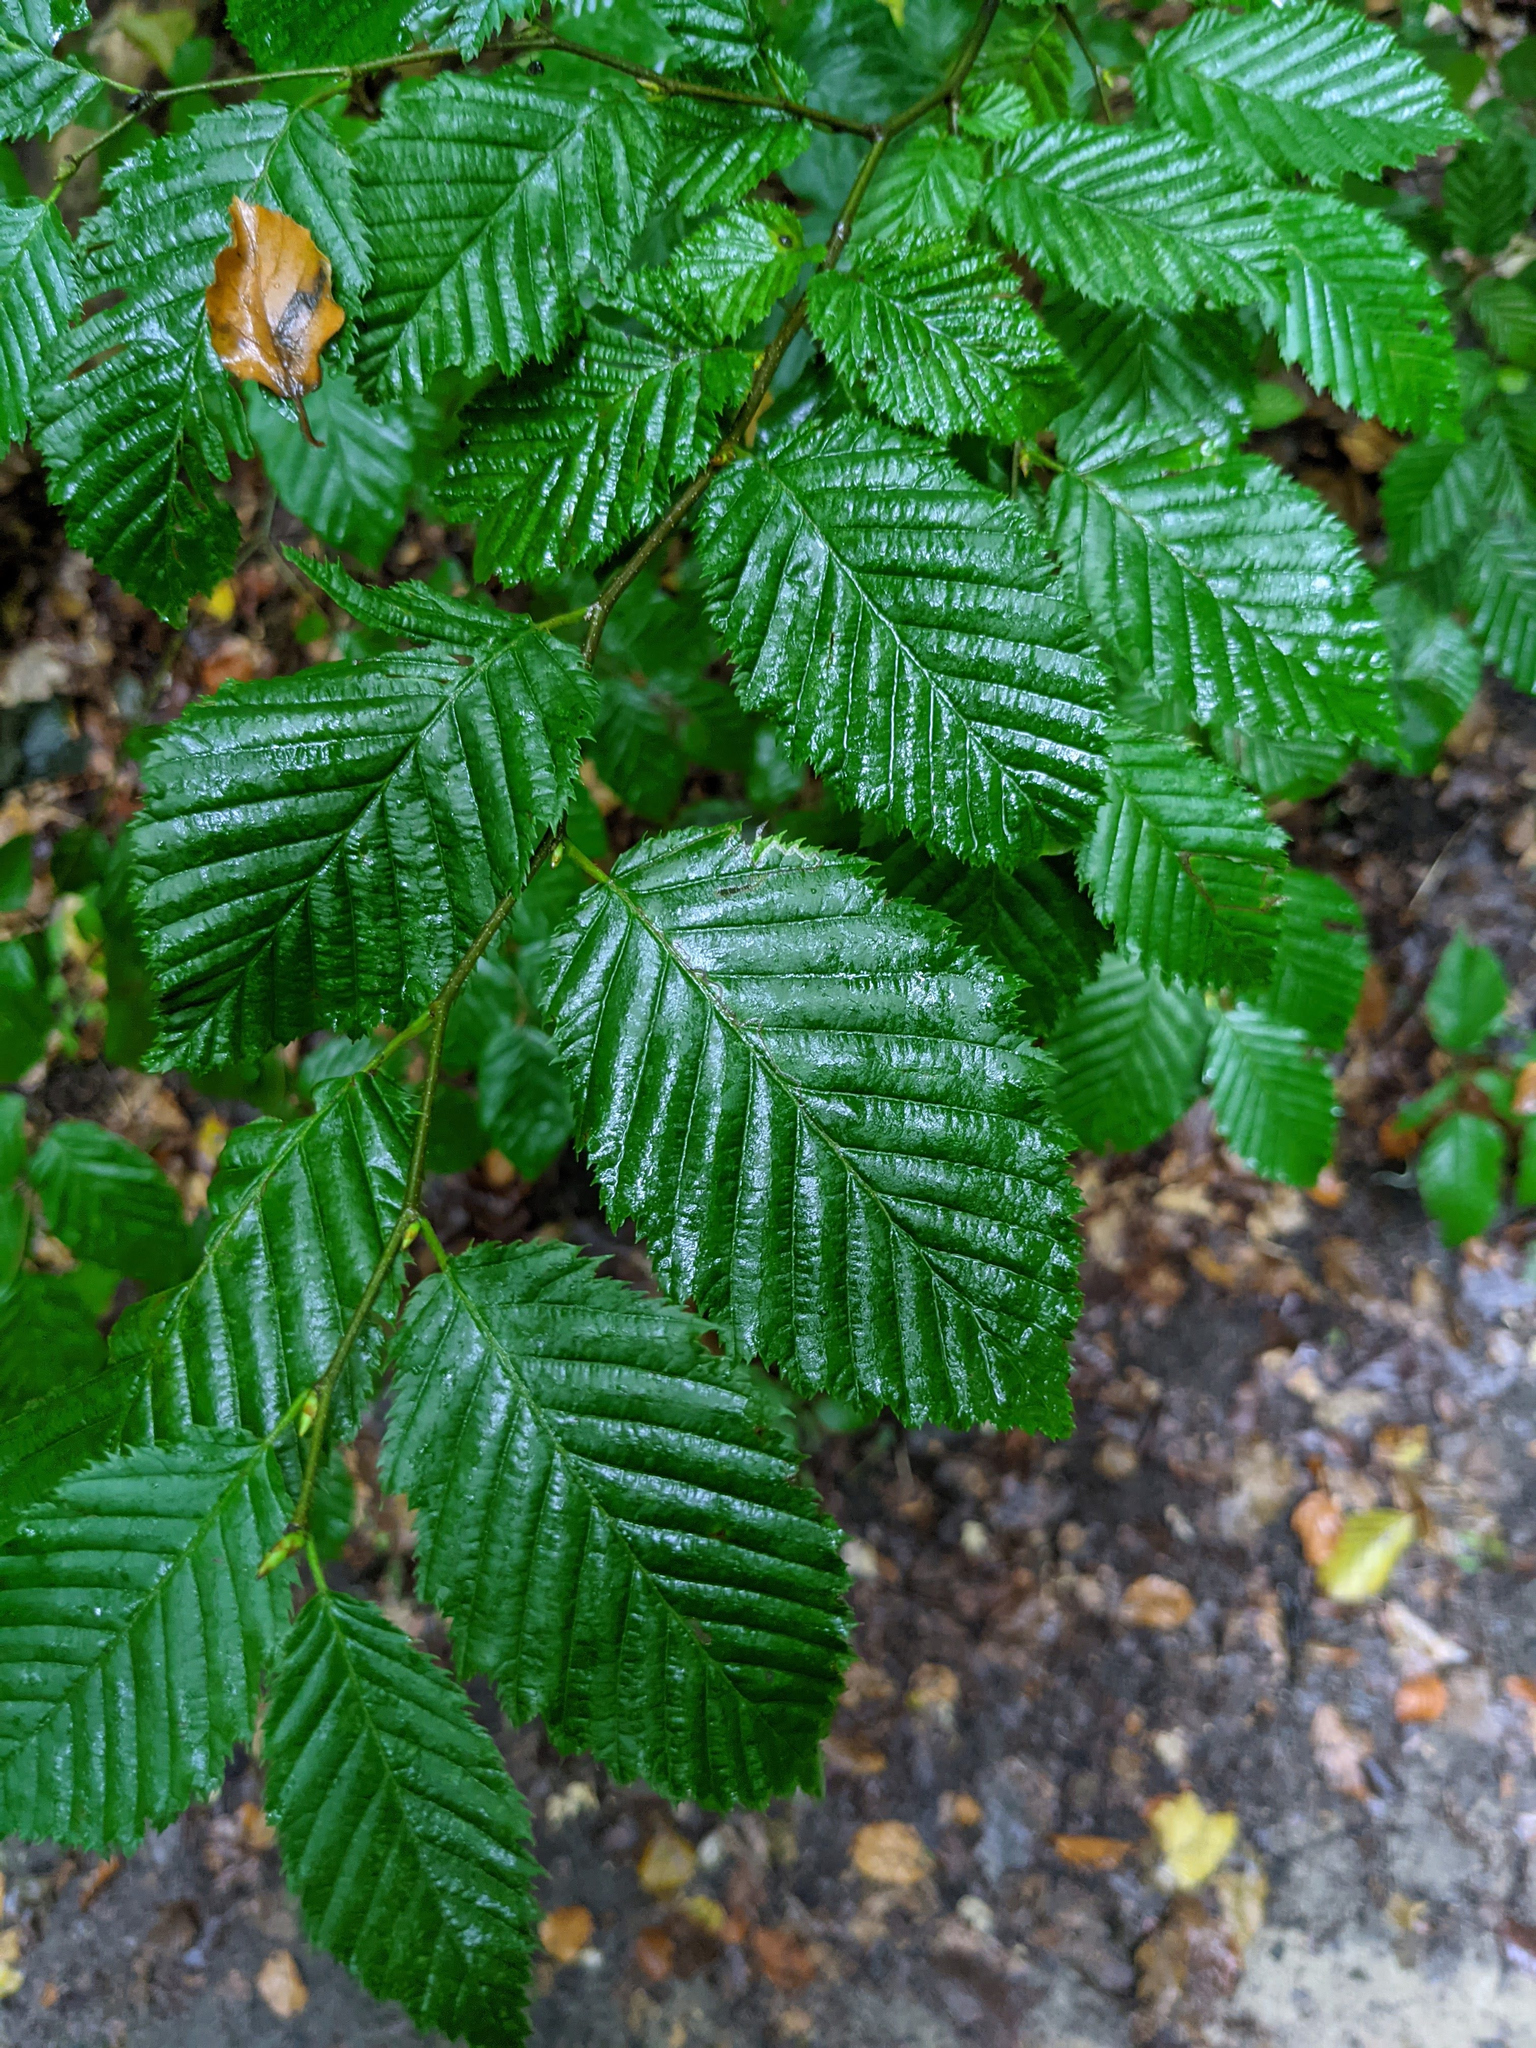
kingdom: Plantae
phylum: Tracheophyta
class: Magnoliopsida
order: Fagales
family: Betulaceae
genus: Carpinus
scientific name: Carpinus betulus
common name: Hornbeam
